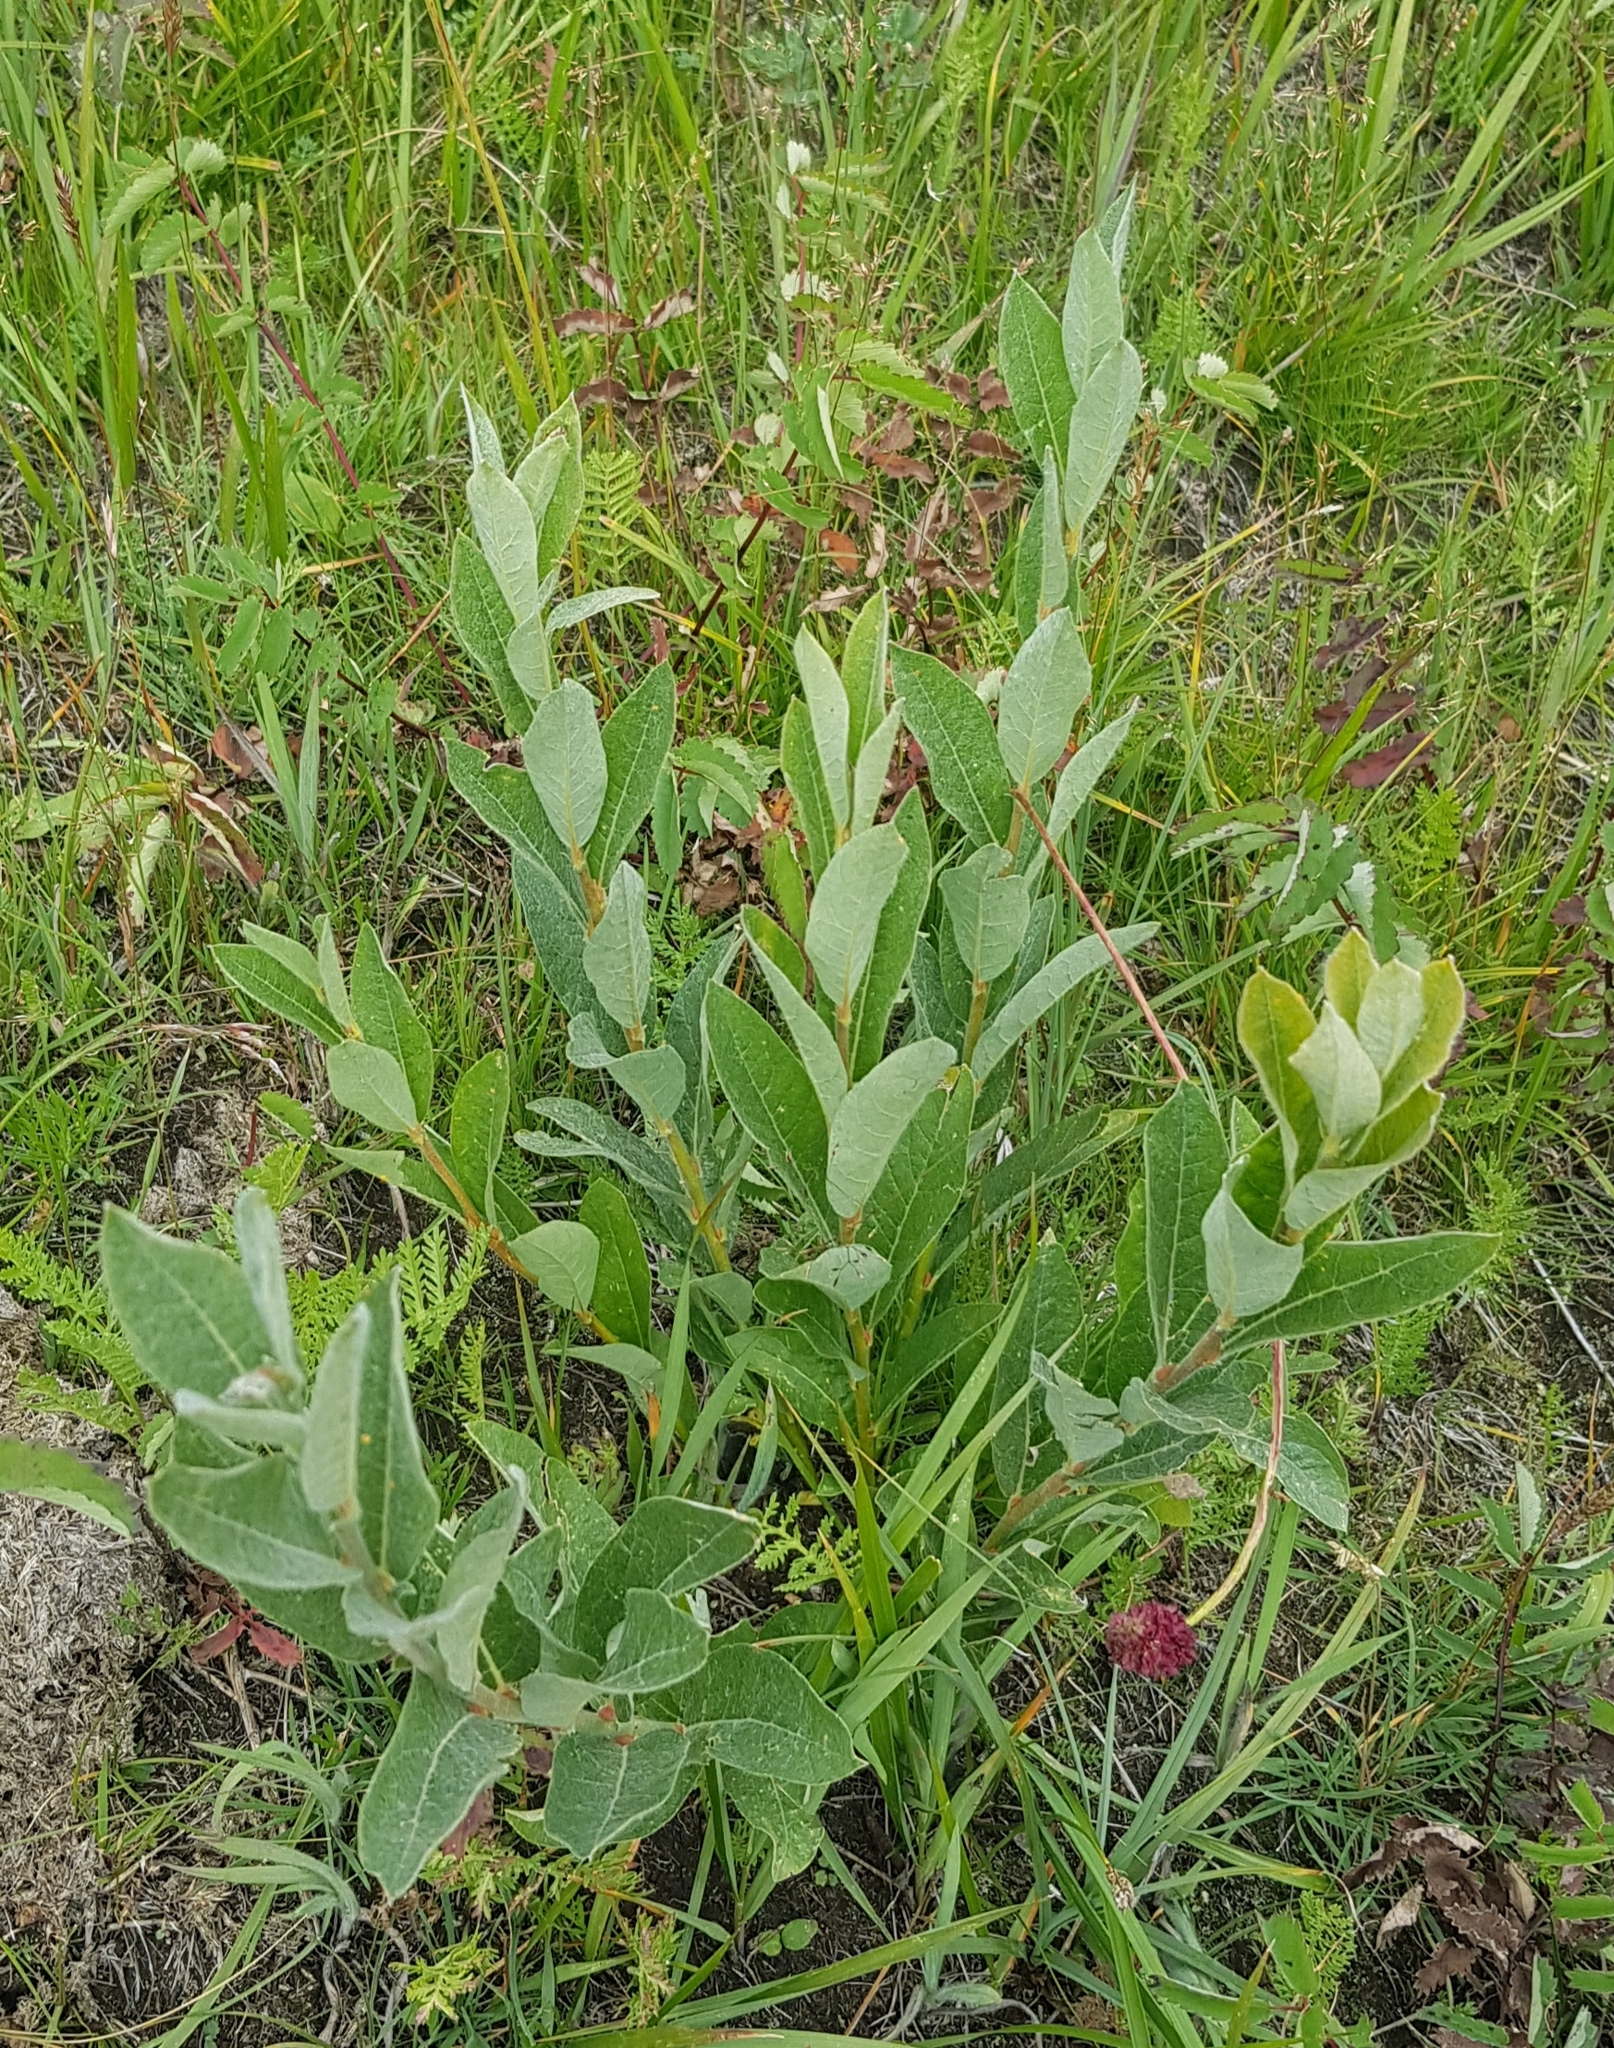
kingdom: Plantae
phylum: Tracheophyta
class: Magnoliopsida
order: Malpighiales
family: Salicaceae
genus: Salix
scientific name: Salix glauca
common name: Glaucous willow
